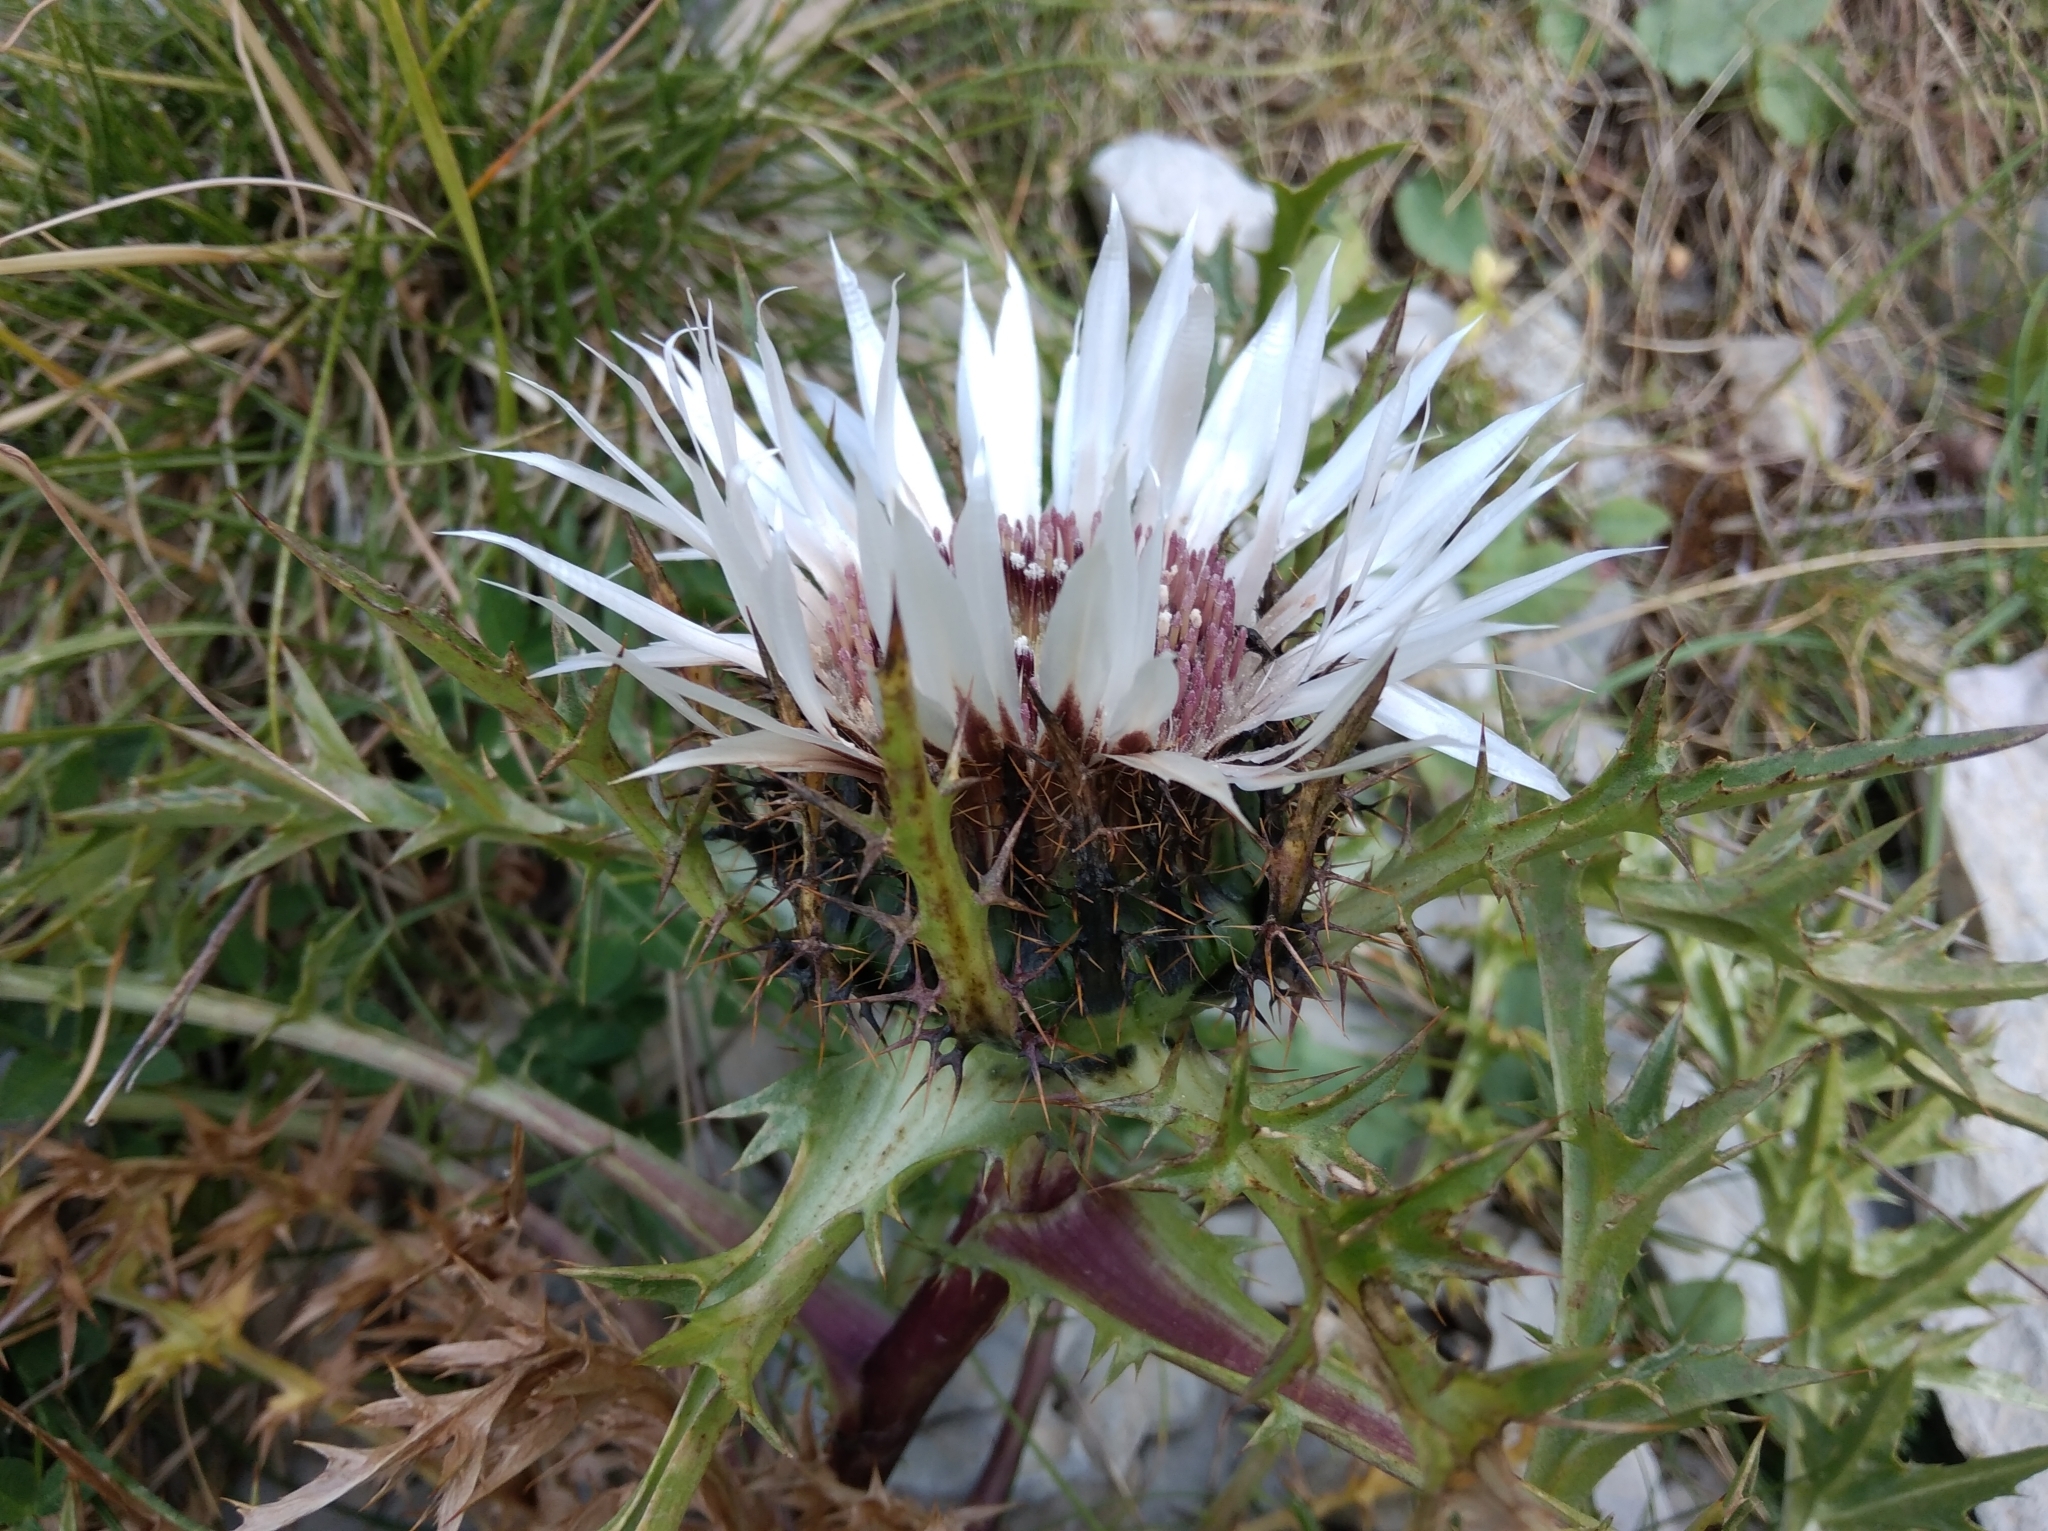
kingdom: Plantae
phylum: Tracheophyta
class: Magnoliopsida
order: Asterales
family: Asteraceae
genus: Carlina
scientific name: Carlina acaulis
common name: Stemless carline thistle
